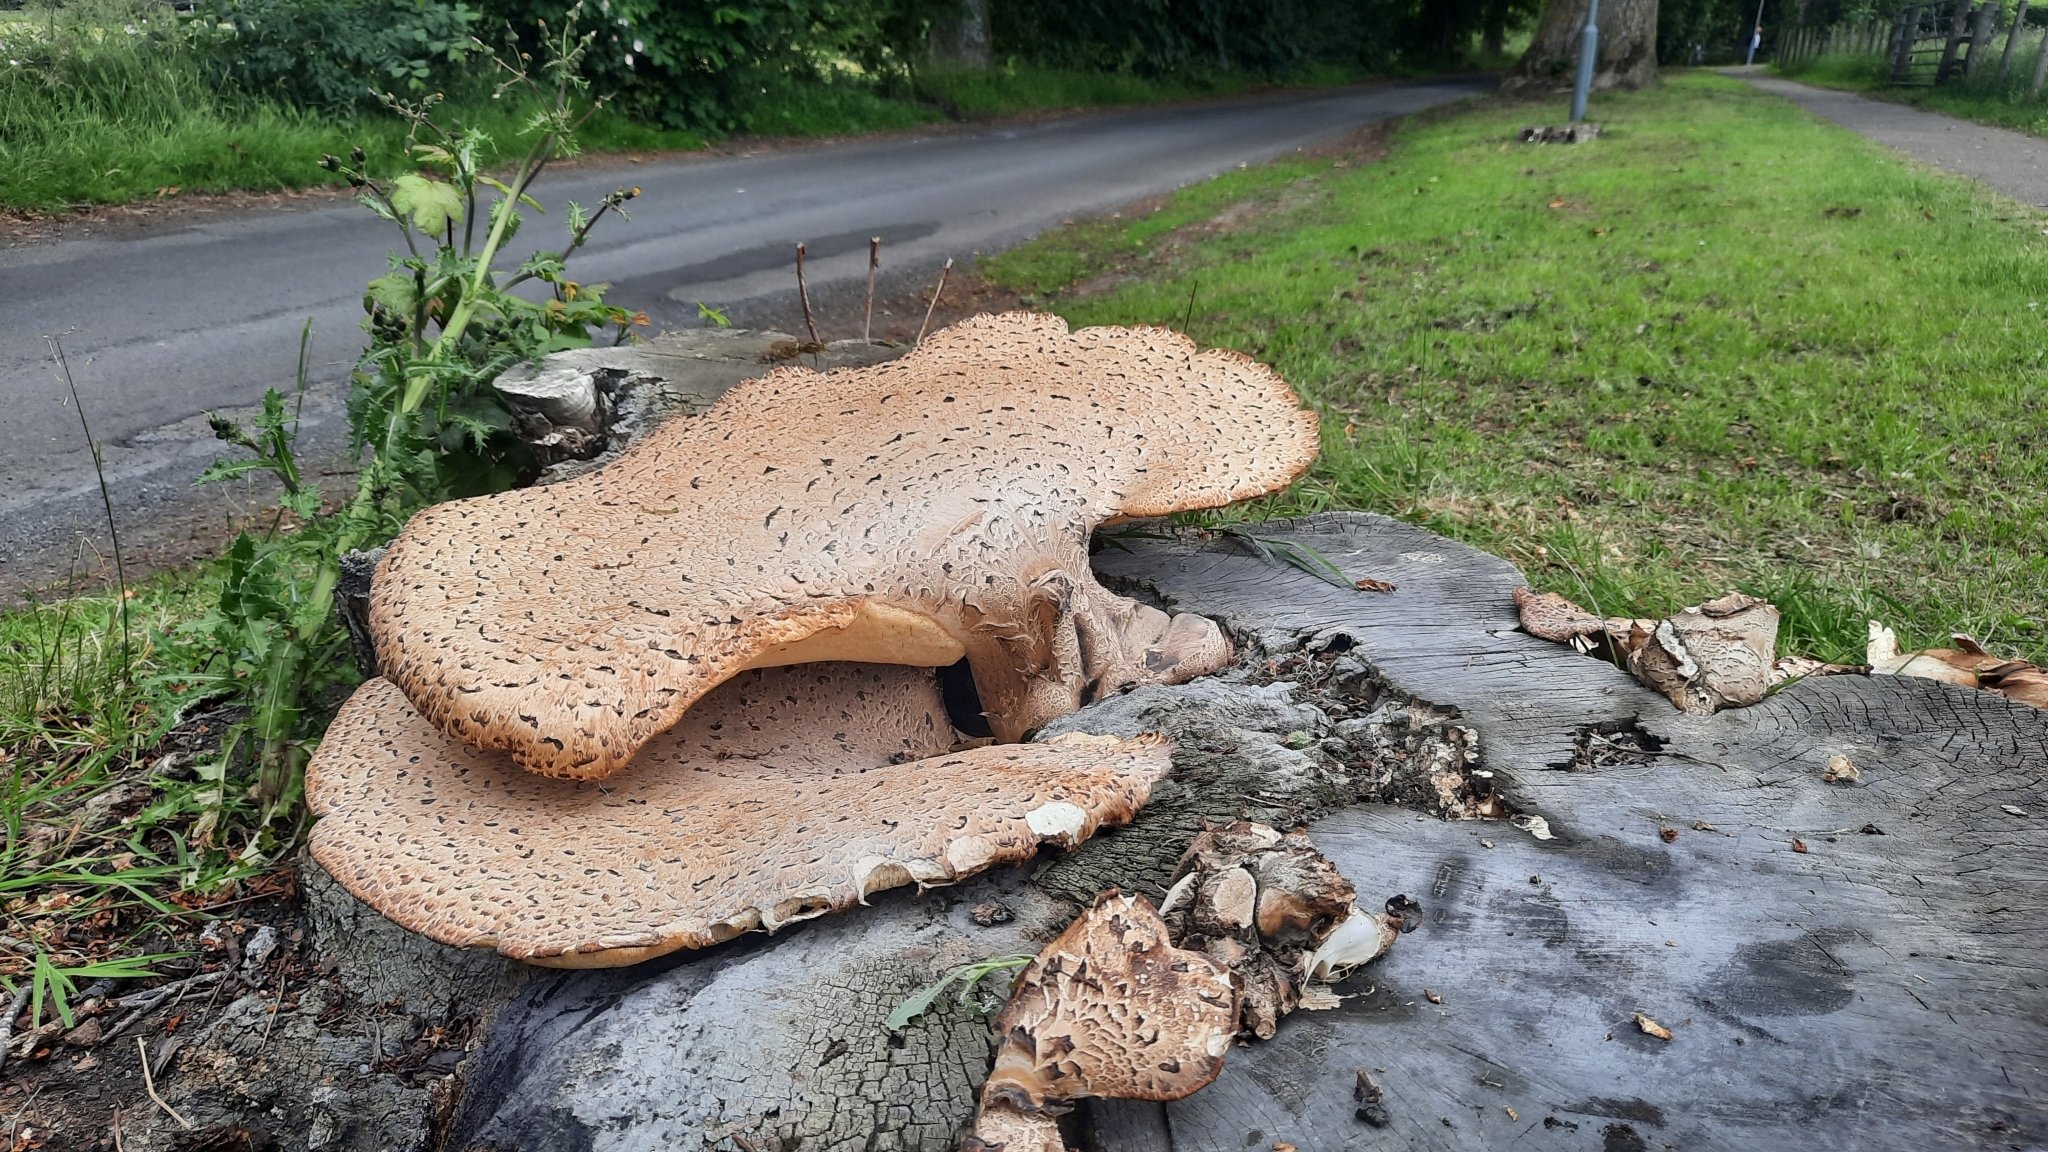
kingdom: Fungi
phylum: Basidiomycota
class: Agaricomycetes
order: Polyporales
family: Polyporaceae
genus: Cerioporus
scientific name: Cerioporus squamosus
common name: Dryad's saddle
